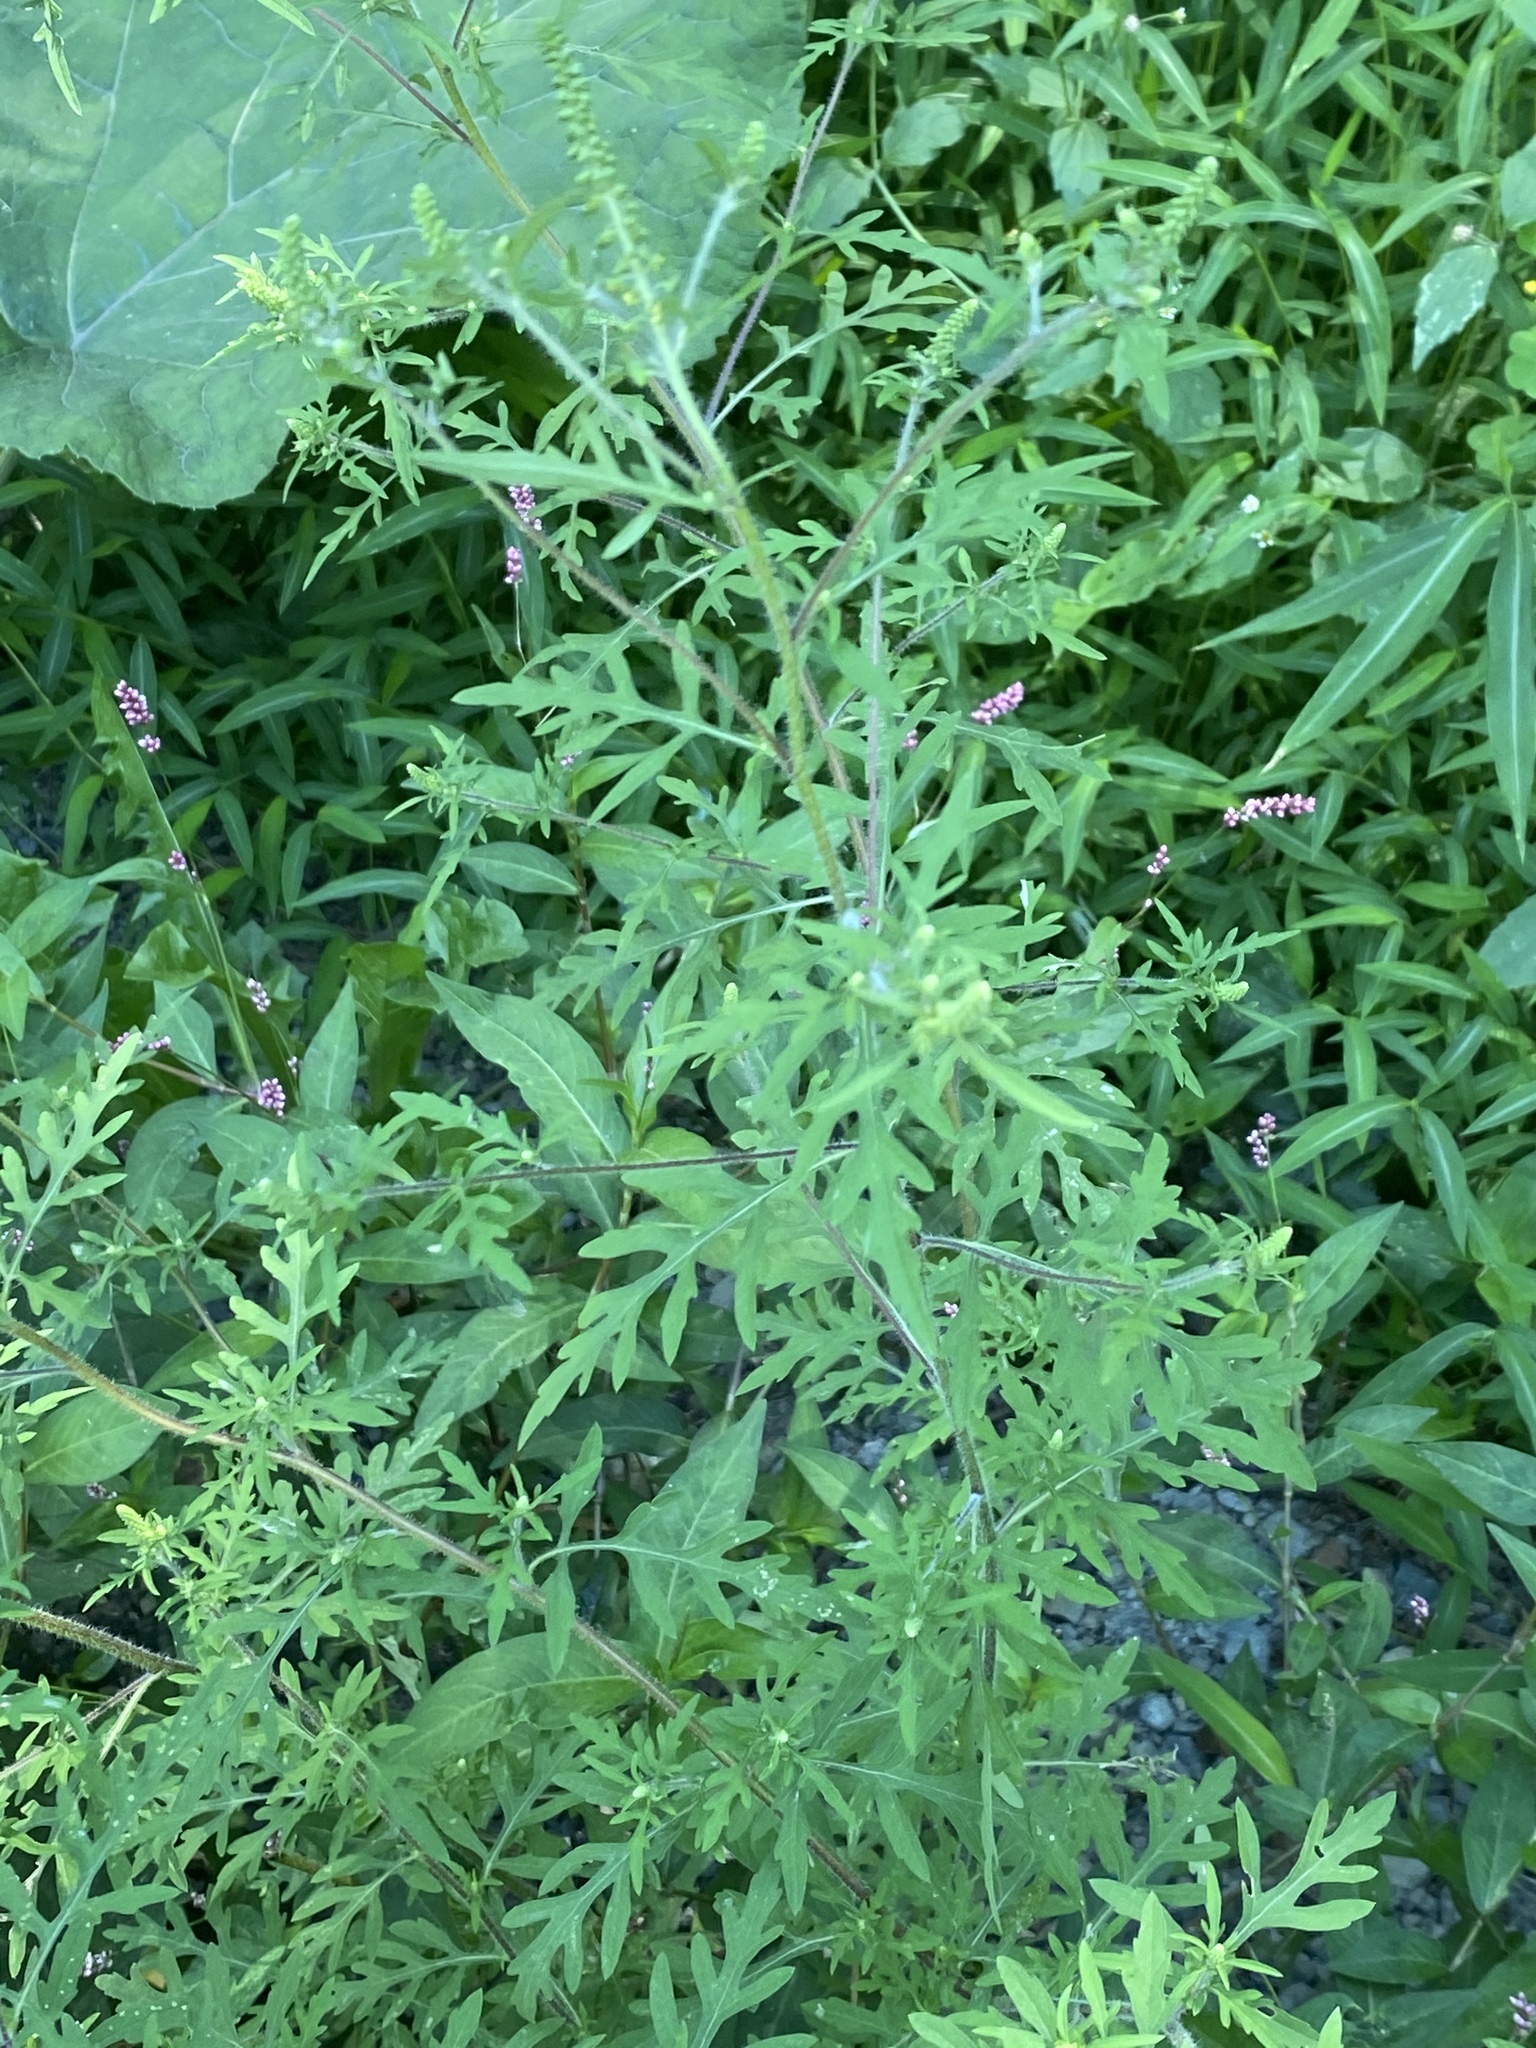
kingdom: Plantae
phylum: Tracheophyta
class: Magnoliopsida
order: Asterales
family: Asteraceae
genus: Ambrosia
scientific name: Ambrosia artemisiifolia
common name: Annual ragweed
